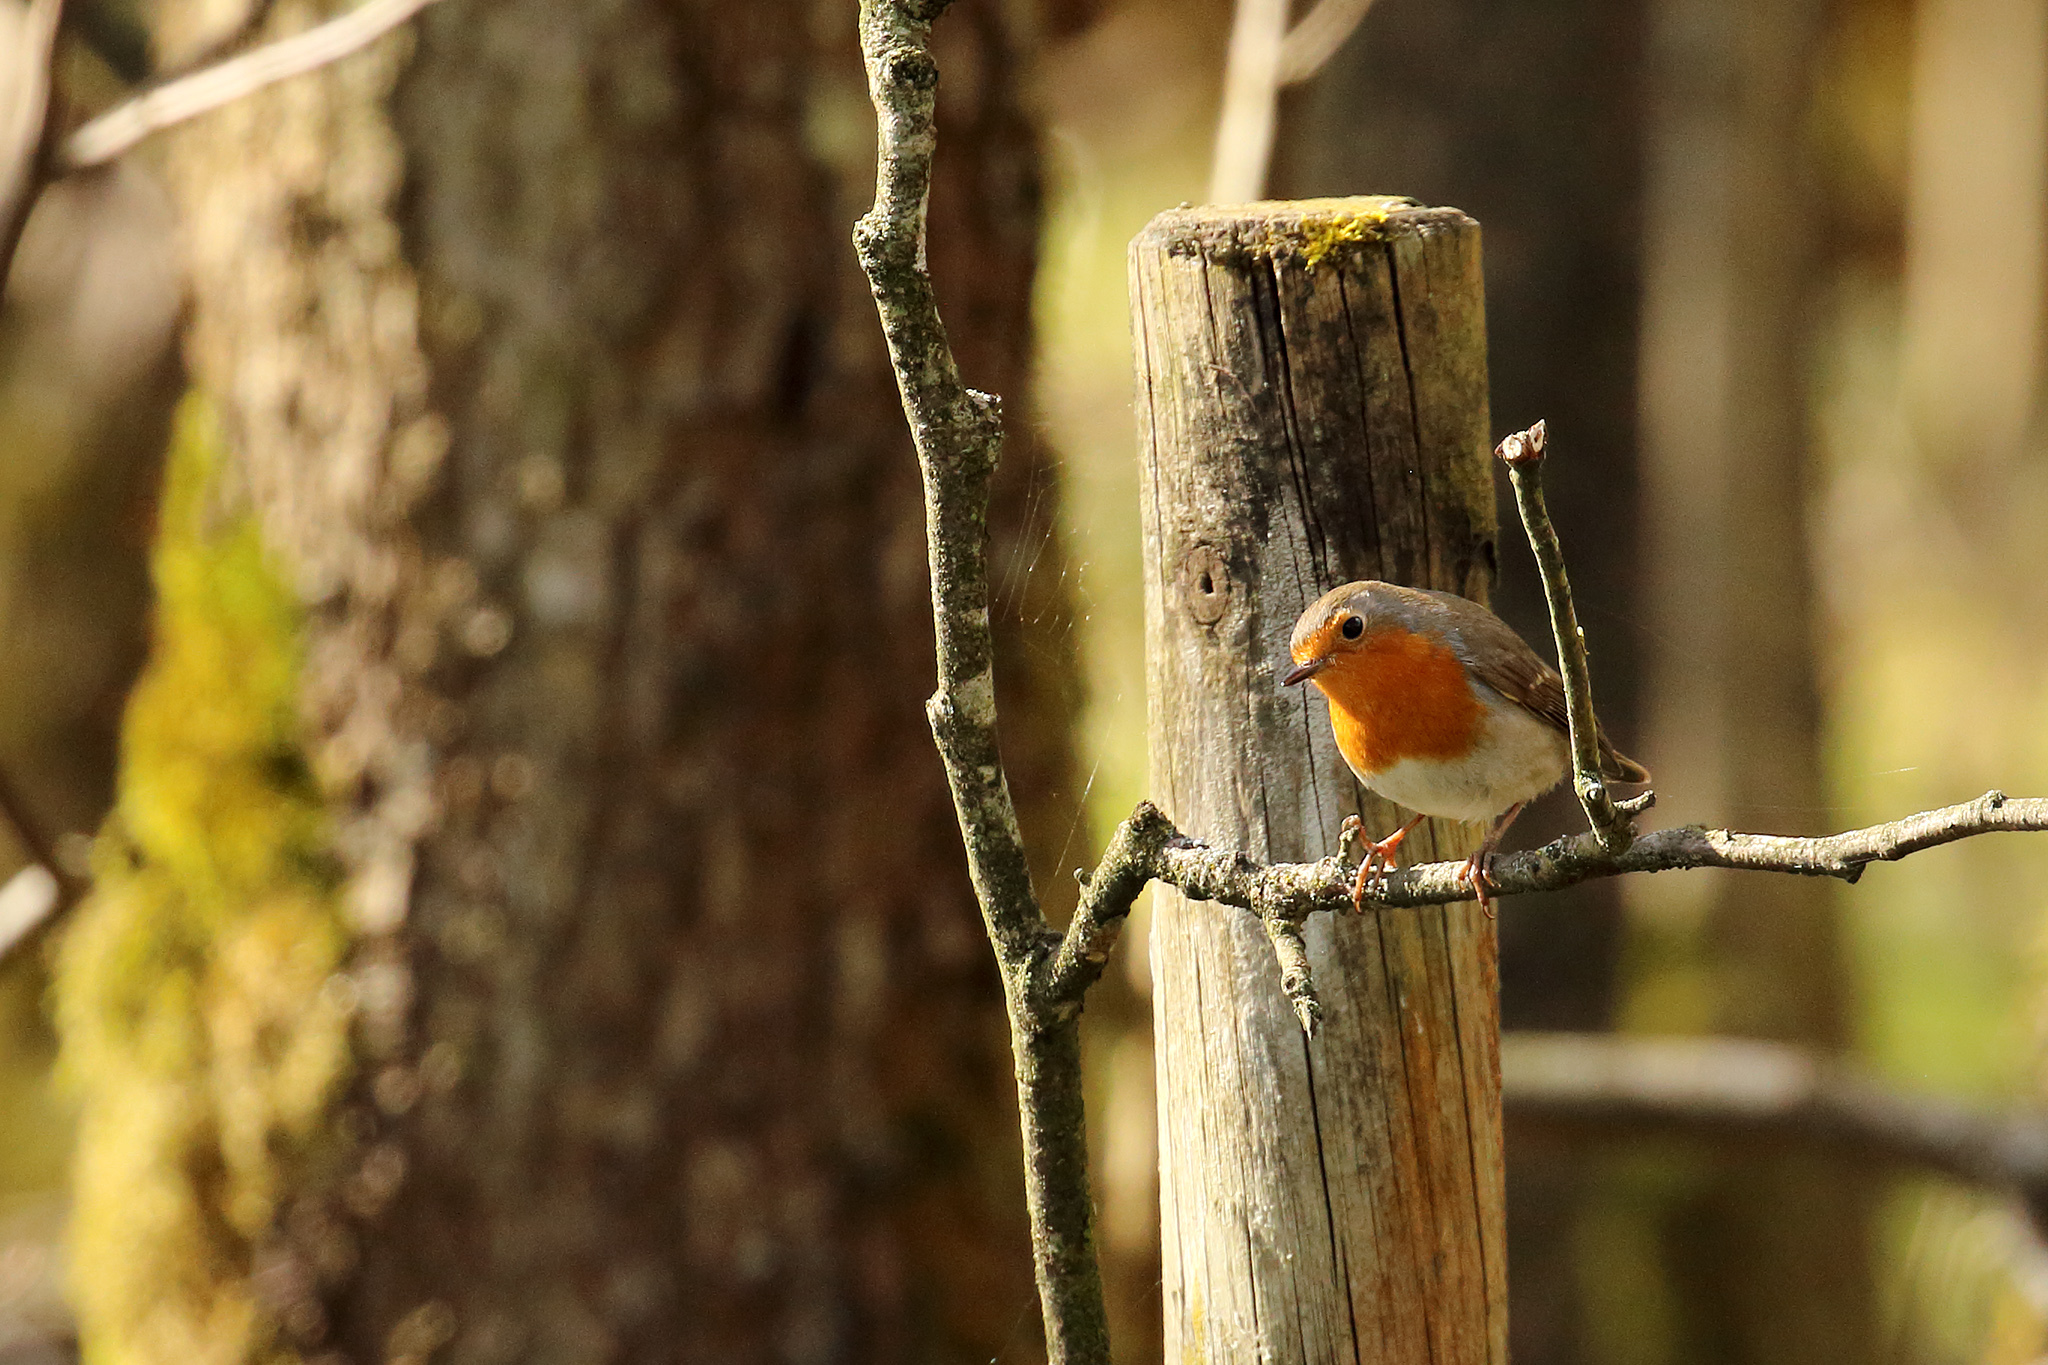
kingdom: Animalia
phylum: Chordata
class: Aves
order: Passeriformes
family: Muscicapidae
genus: Erithacus
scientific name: Erithacus rubecula
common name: European robin
